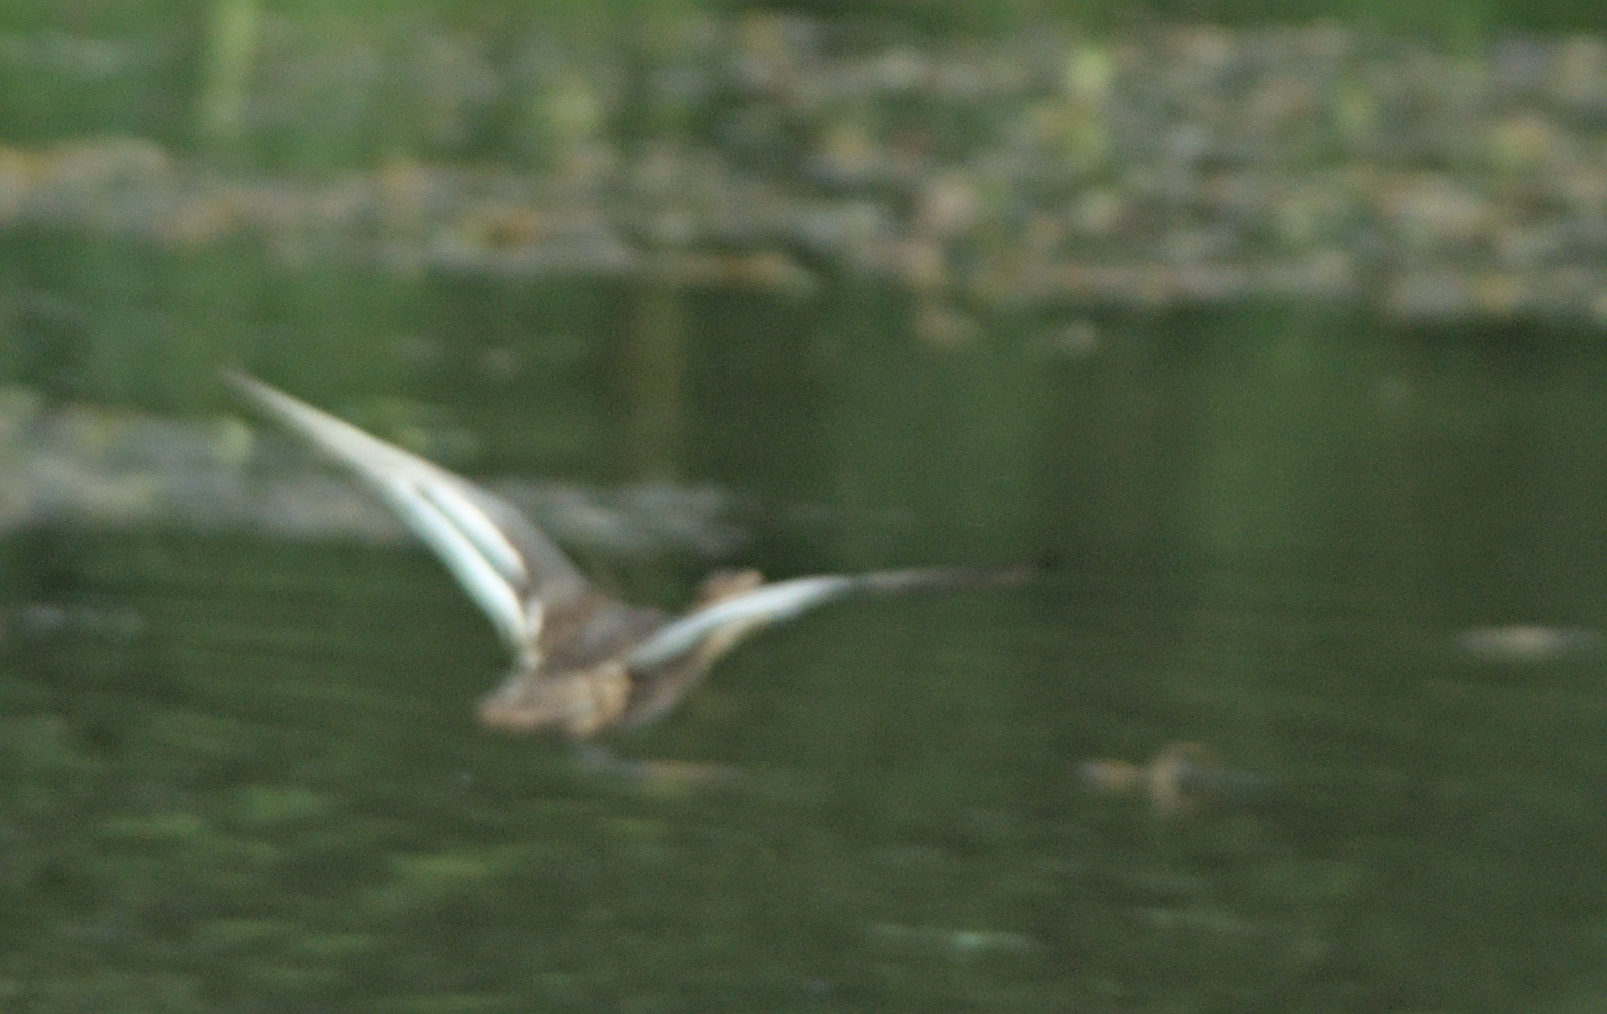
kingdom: Animalia
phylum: Chordata
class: Aves
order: Anseriformes
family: Anatidae
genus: Spatula
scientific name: Spatula querquedula
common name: Garganey
